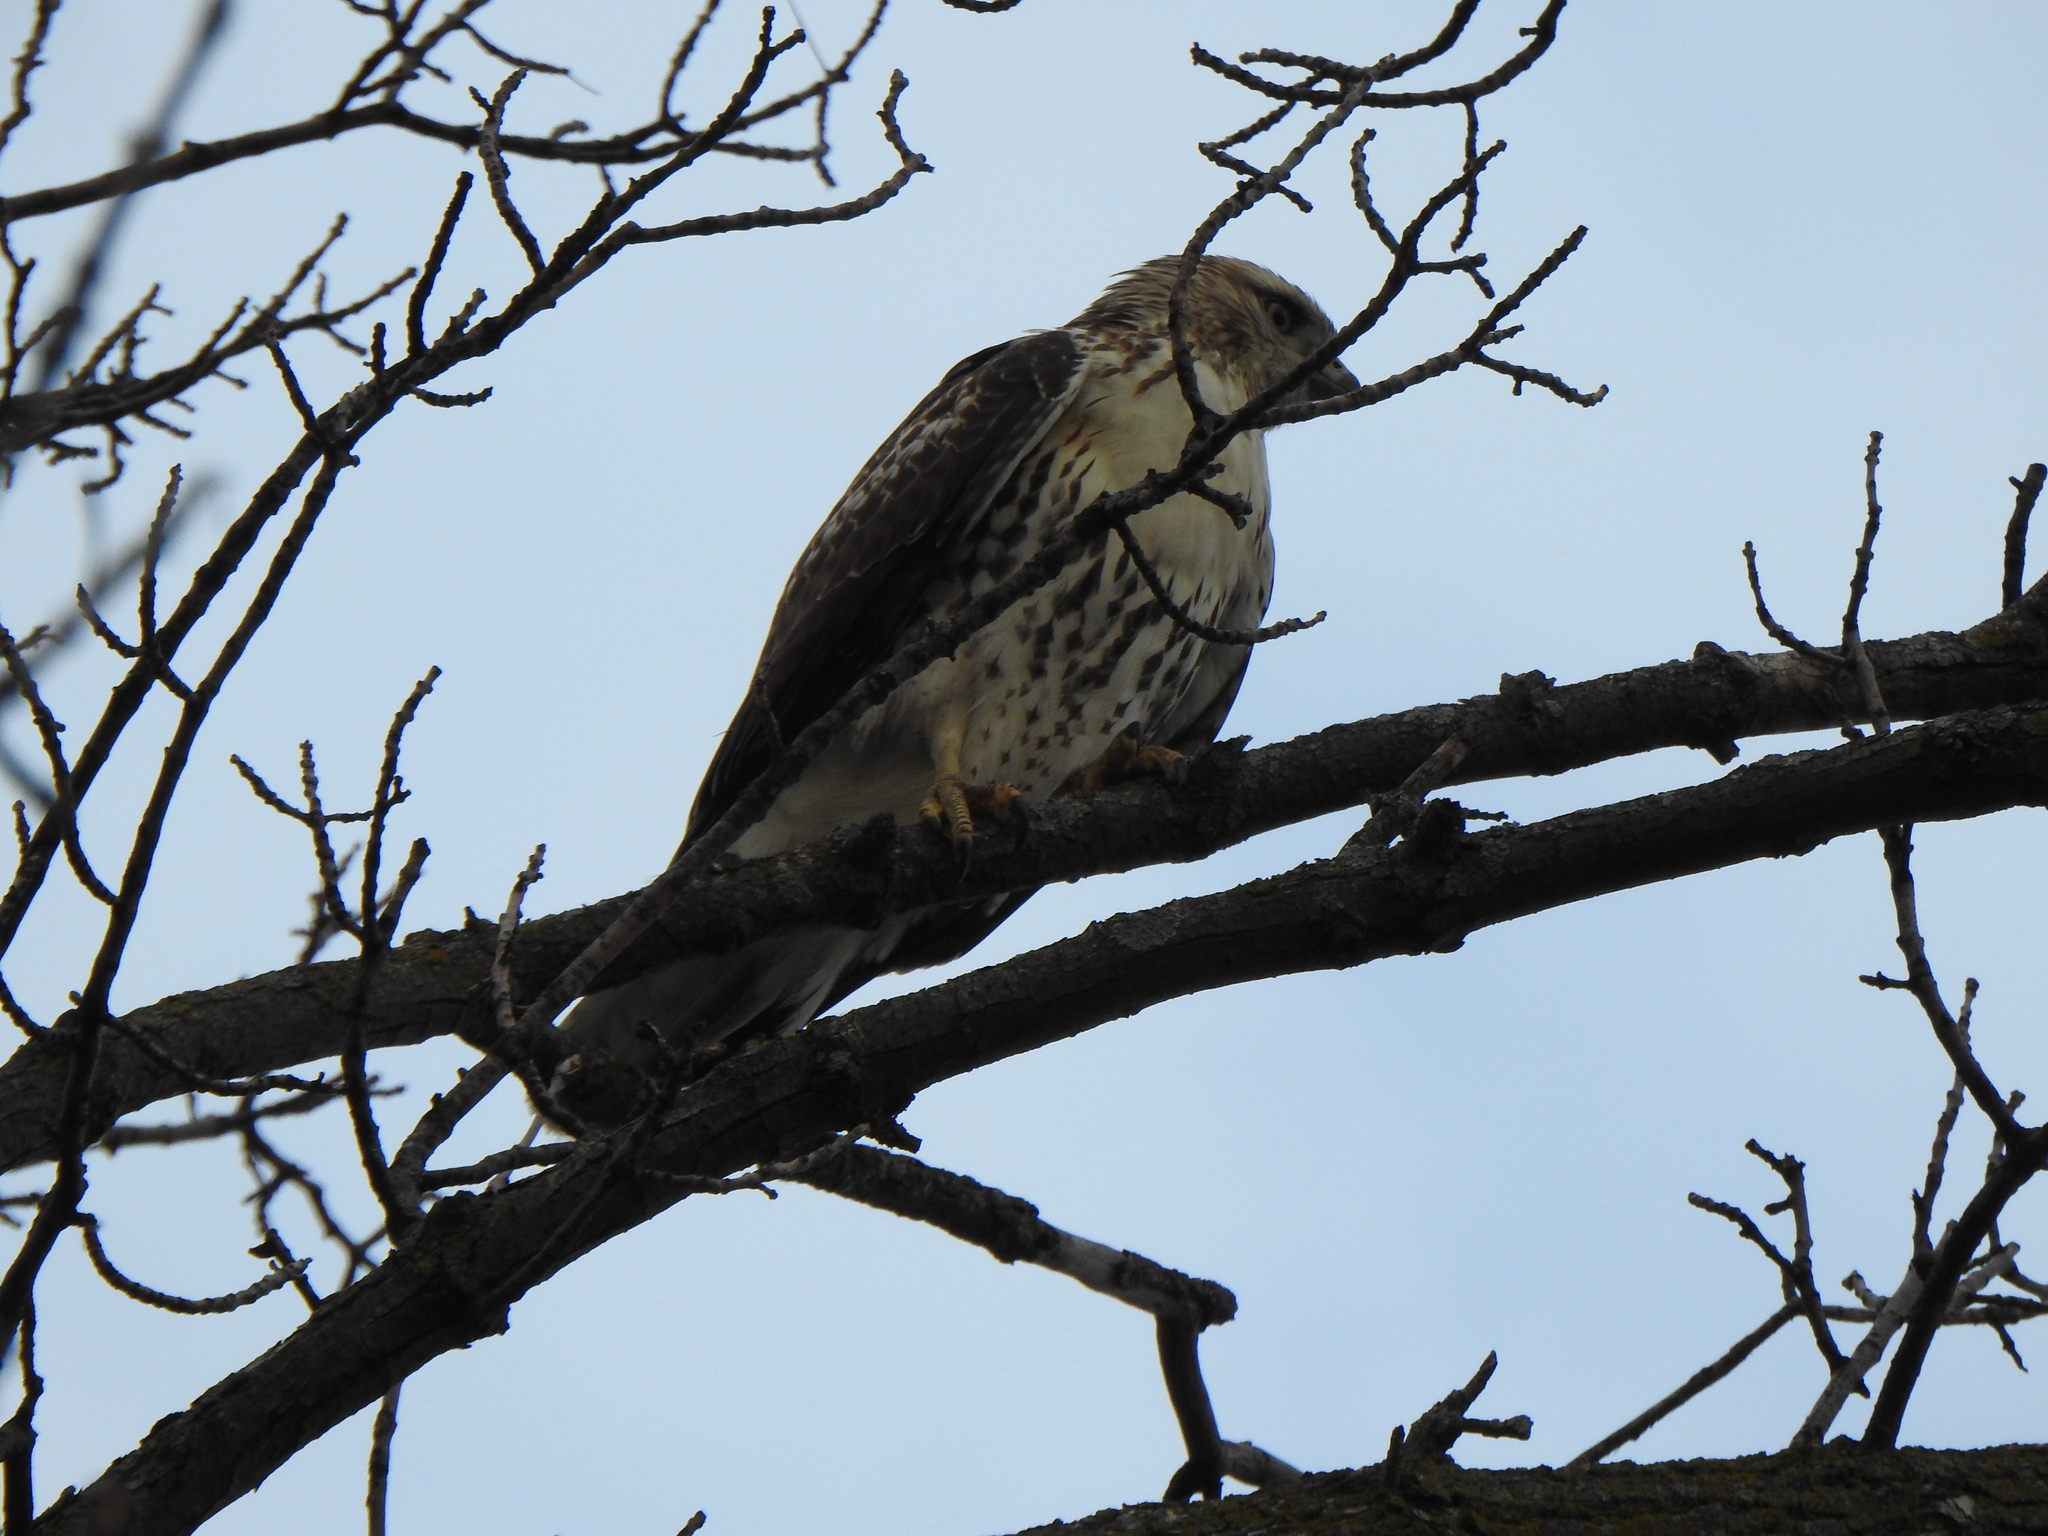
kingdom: Animalia
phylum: Chordata
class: Aves
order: Accipitriformes
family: Accipitridae
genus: Buteo
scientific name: Buteo jamaicensis
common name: Red-tailed hawk
